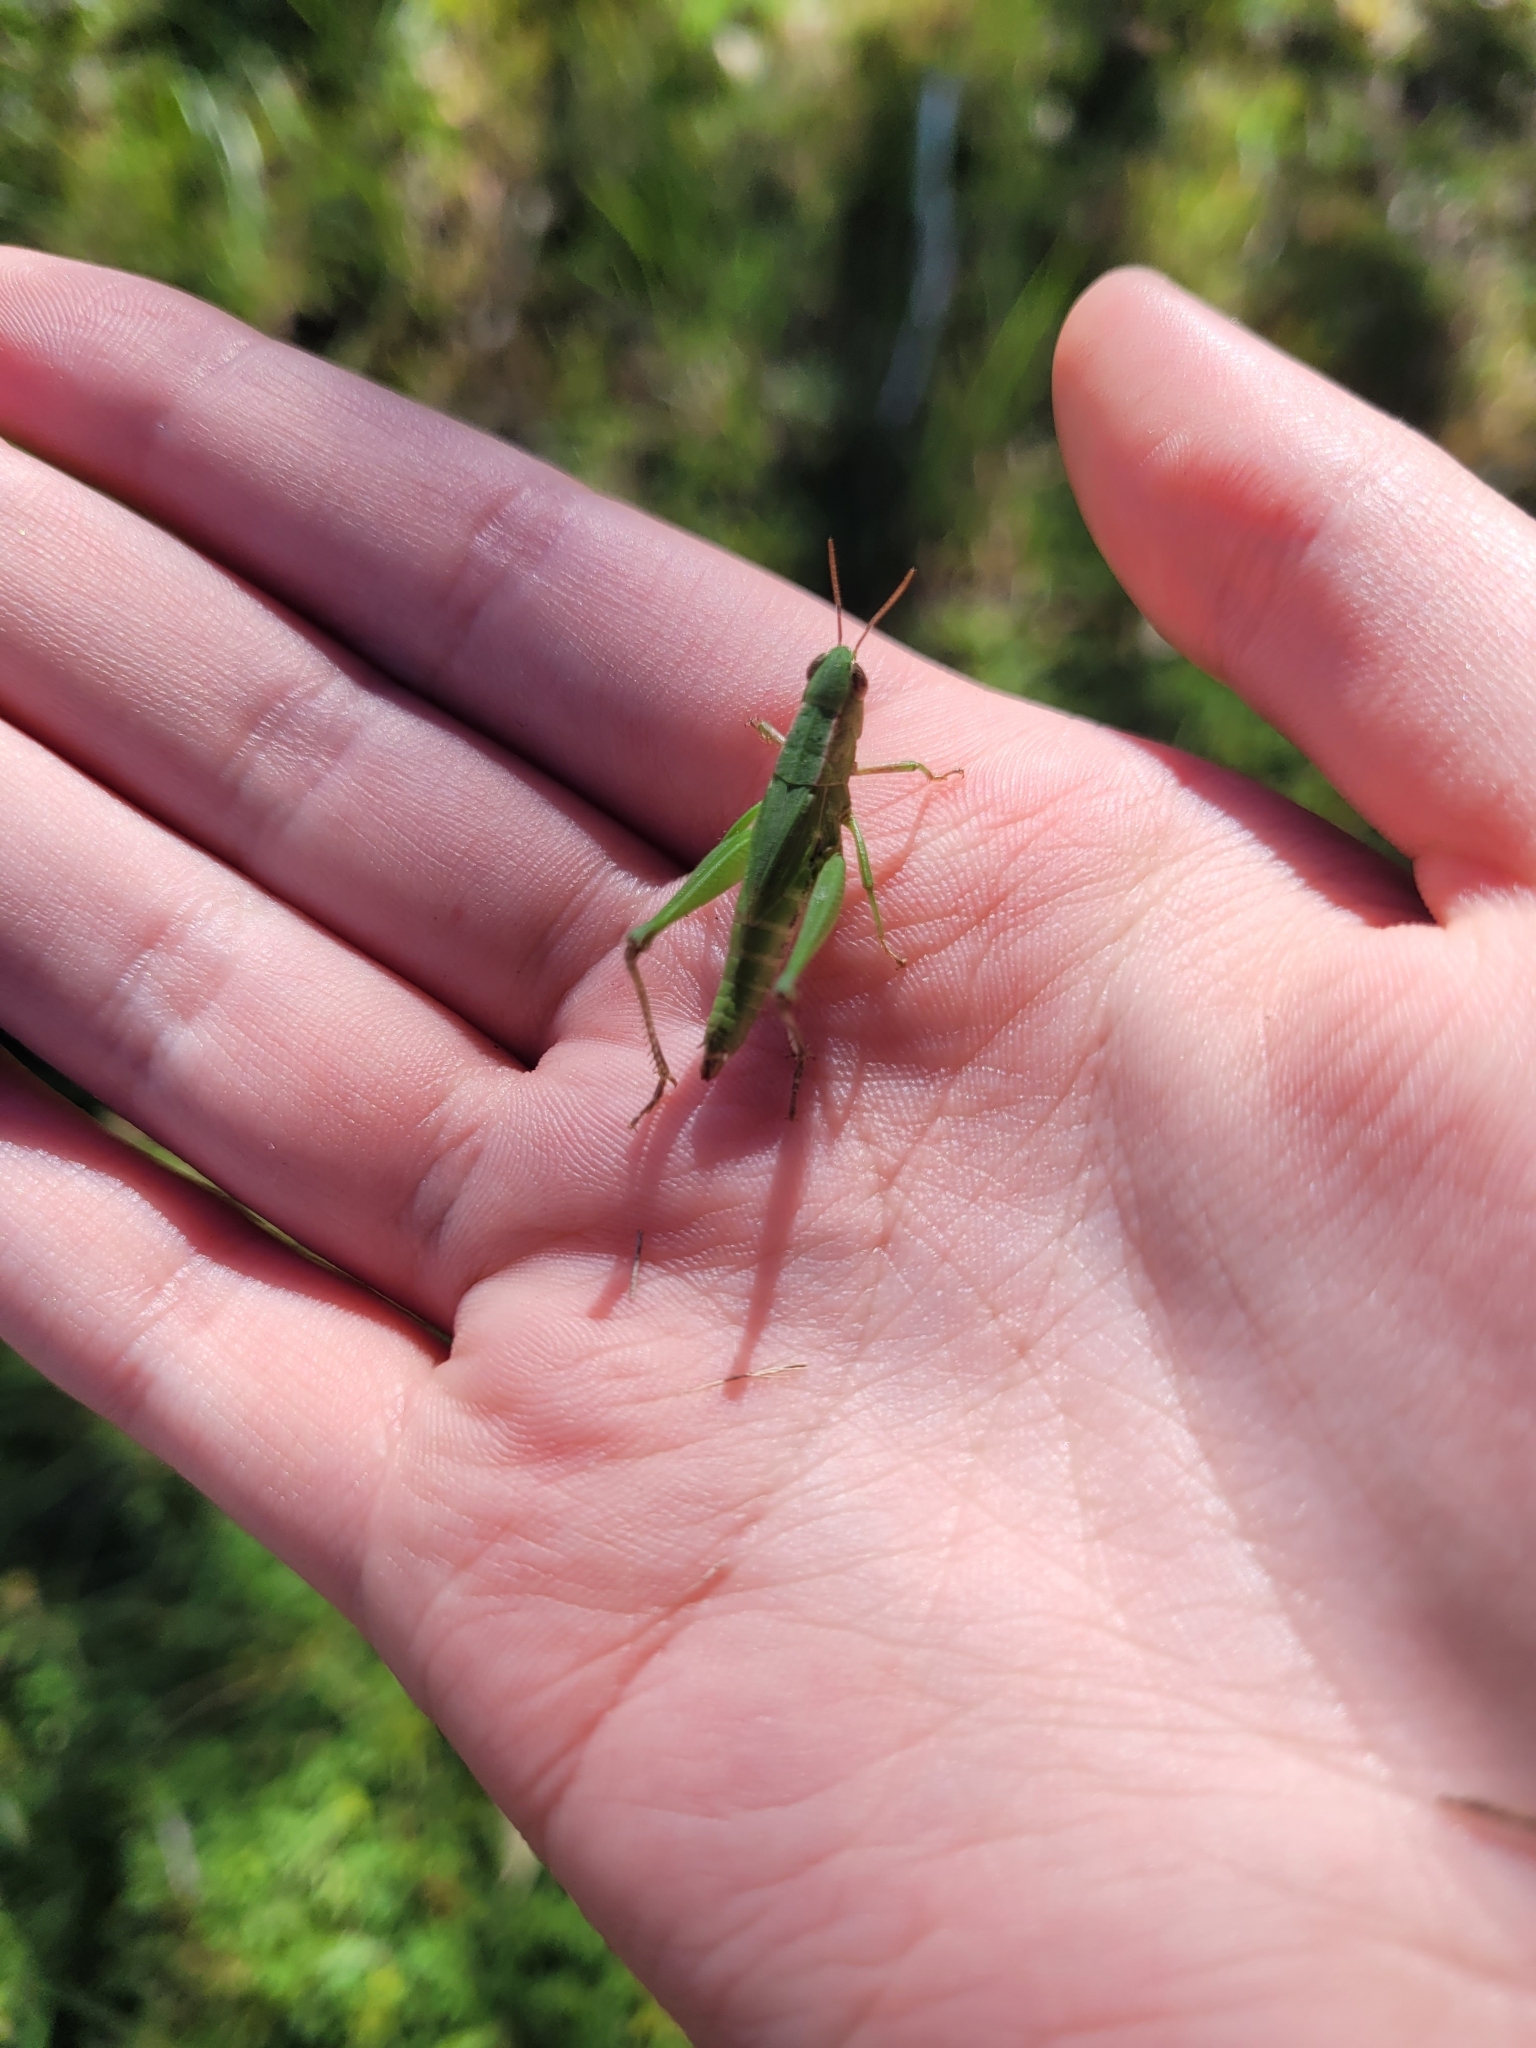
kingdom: Animalia
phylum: Arthropoda
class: Insecta
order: Orthoptera
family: Acrididae
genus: Dichromorpha
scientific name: Dichromorpha viridis
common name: Short-winged green grasshopper
